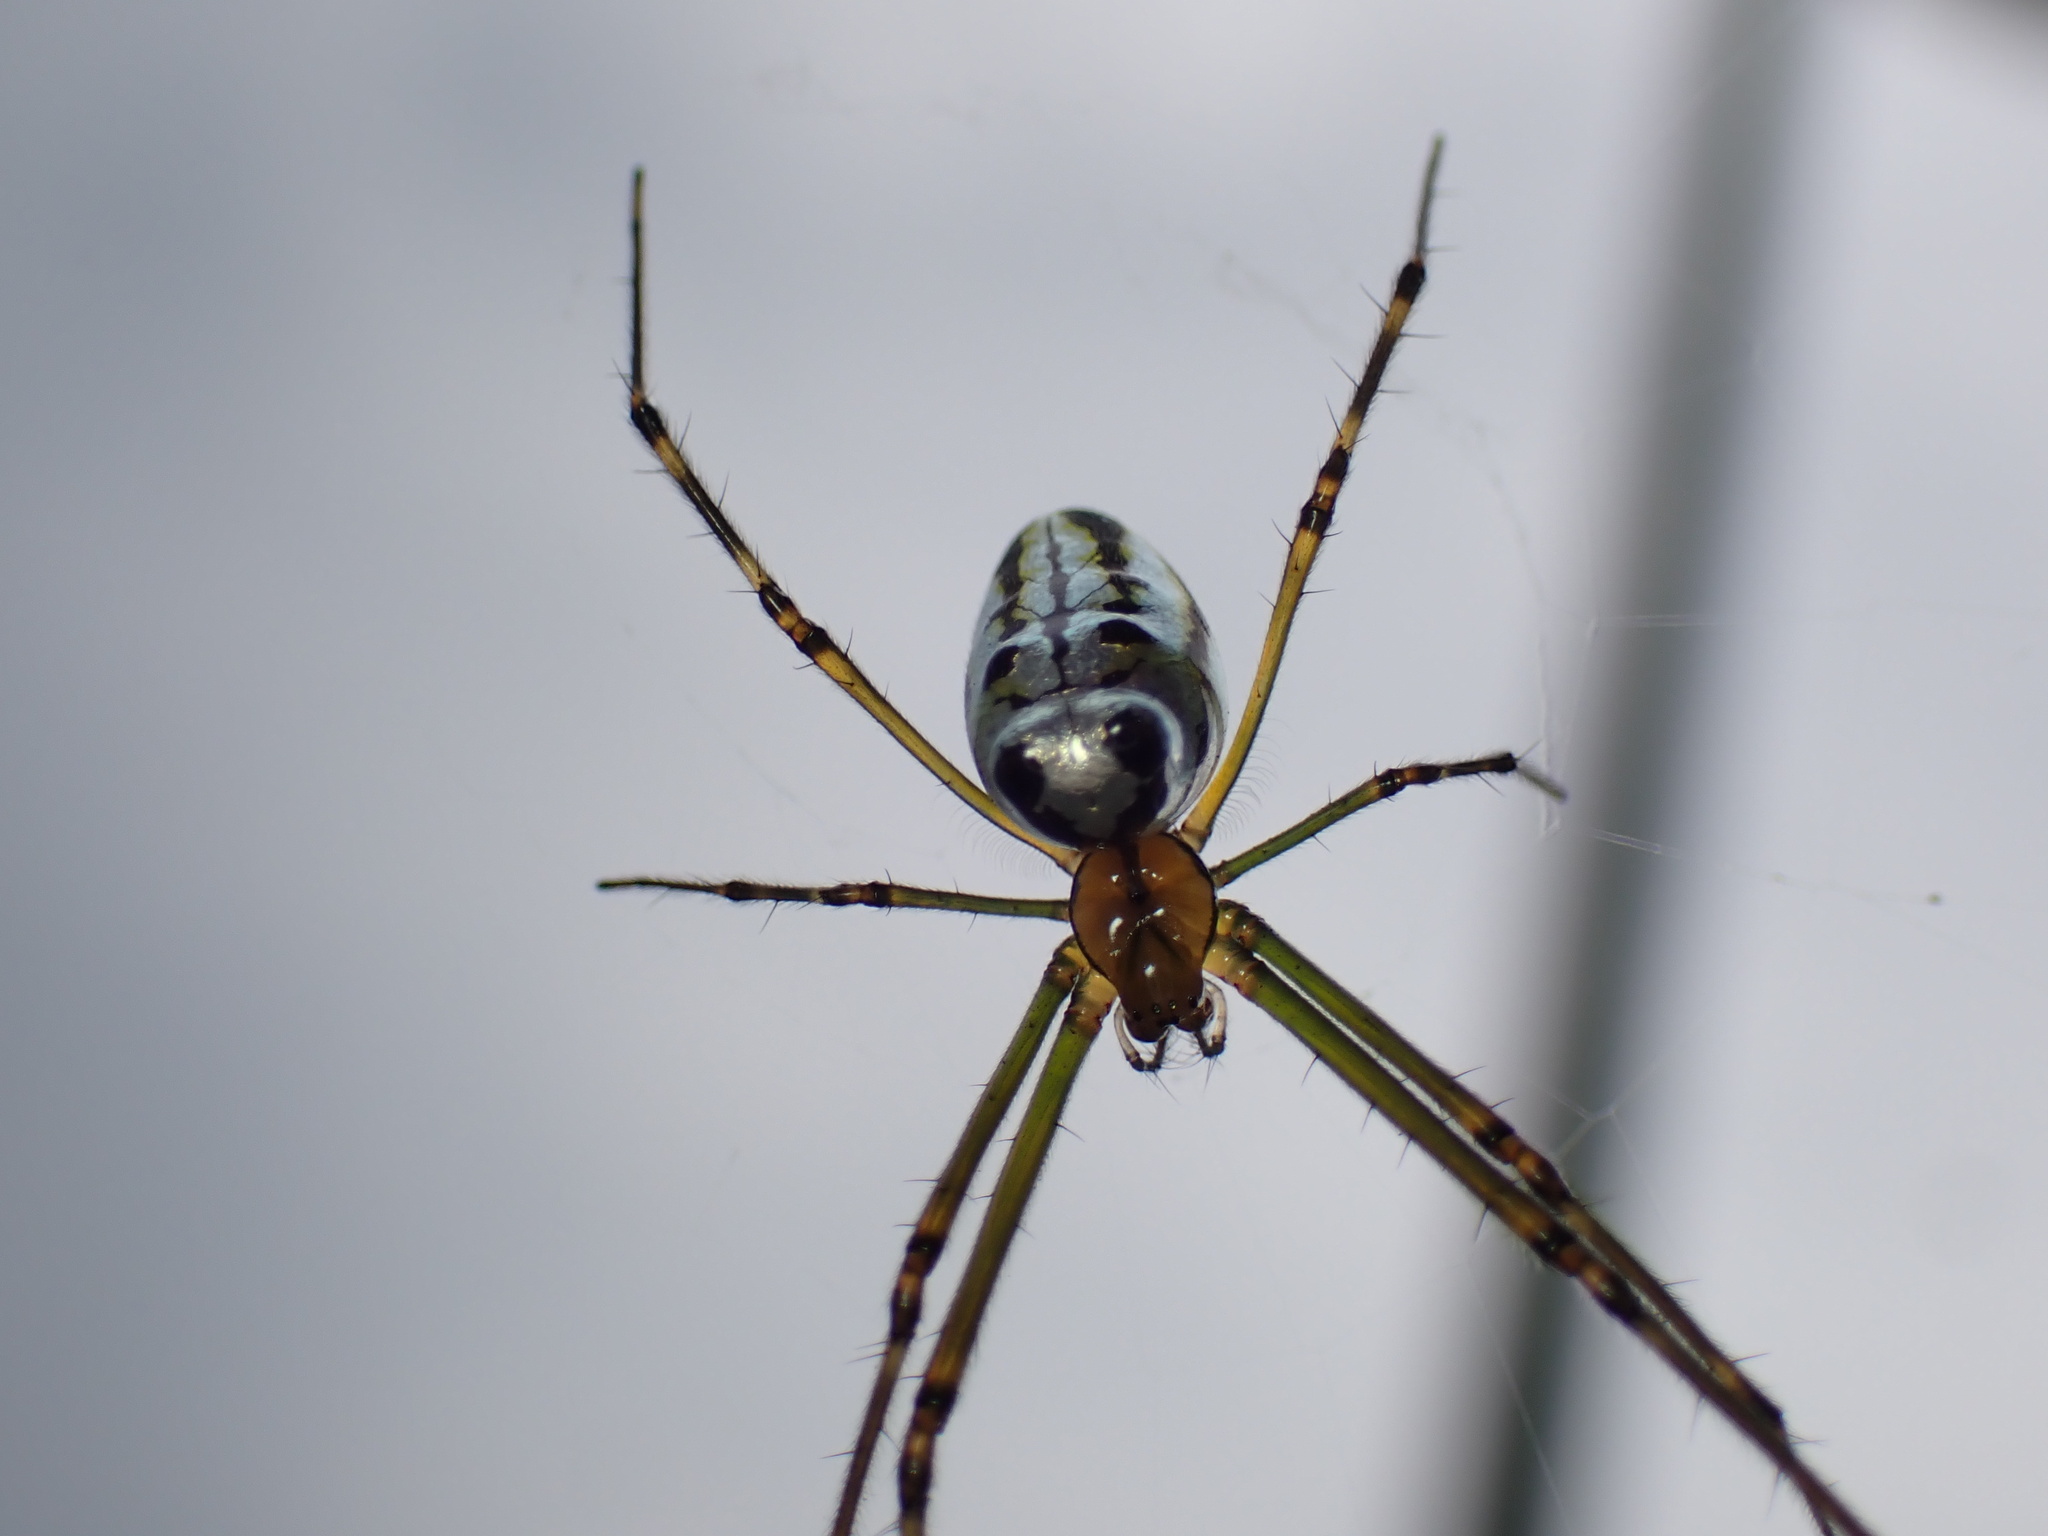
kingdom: Animalia
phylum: Arthropoda
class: Arachnida
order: Araneae
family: Tetragnathidae
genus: Leucauge
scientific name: Leucauge dromedaria
